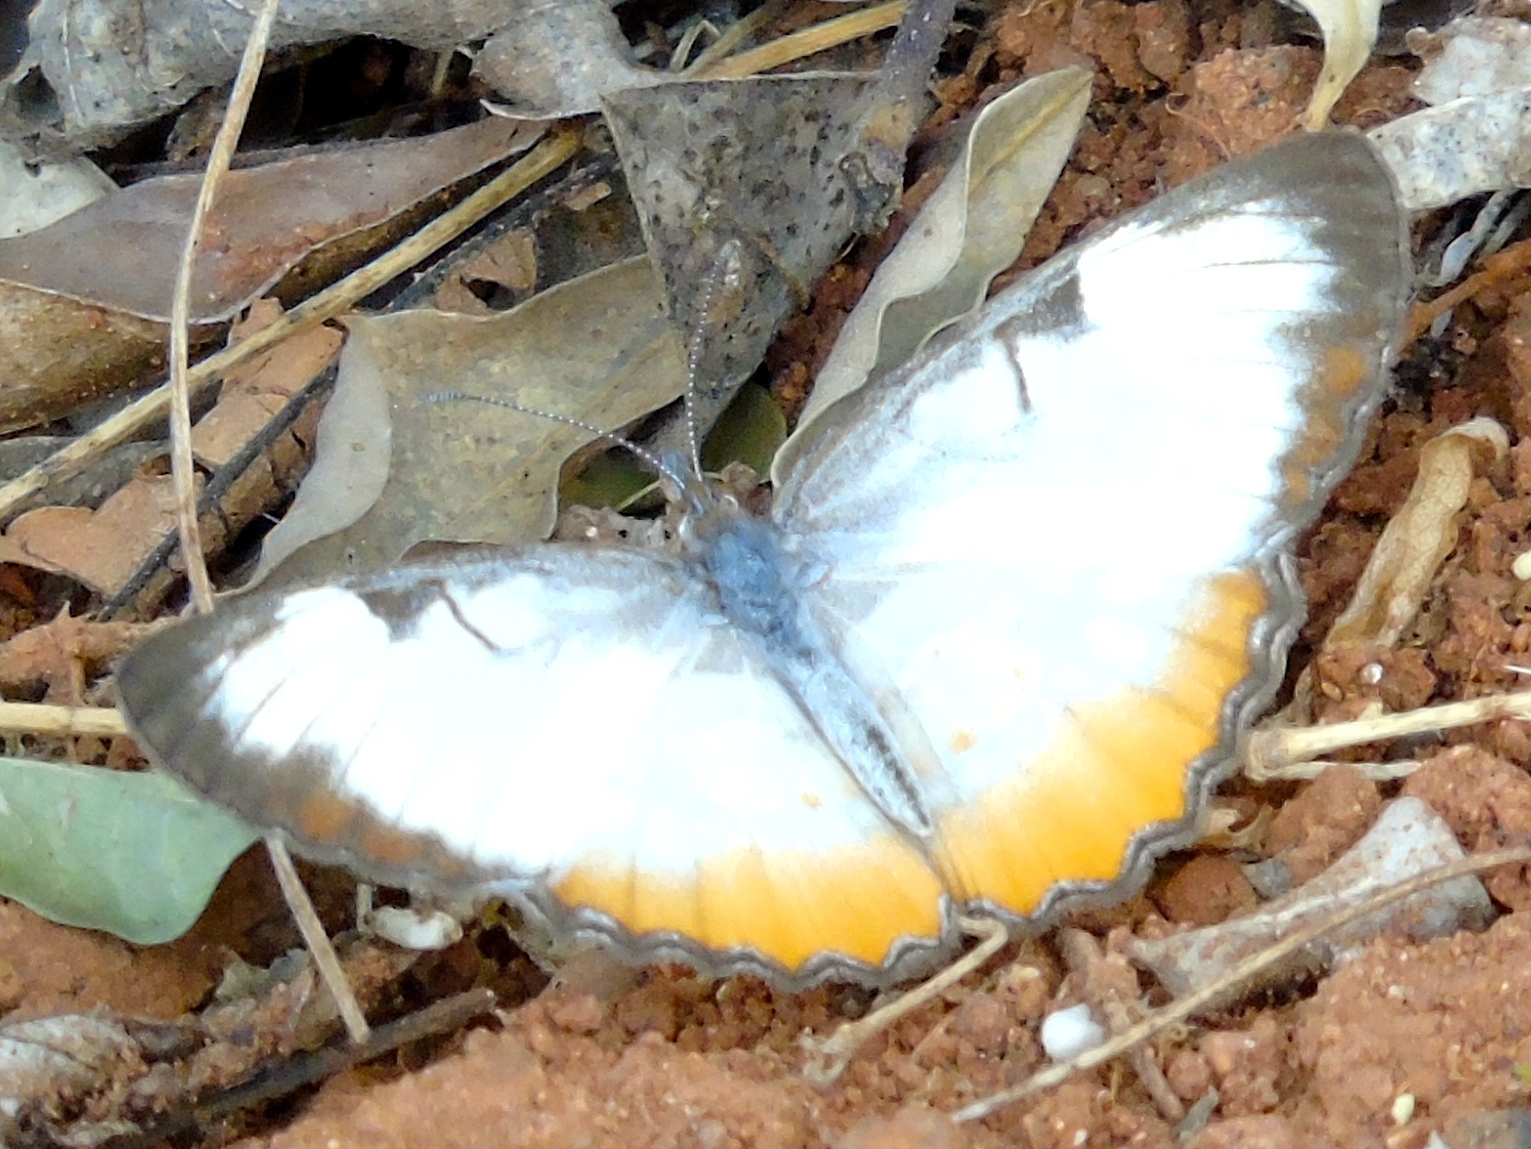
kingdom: Animalia
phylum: Arthropoda
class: Insecta
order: Lepidoptera
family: Nymphalidae
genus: Mestra
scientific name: Mestra amymone
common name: Common mestra
